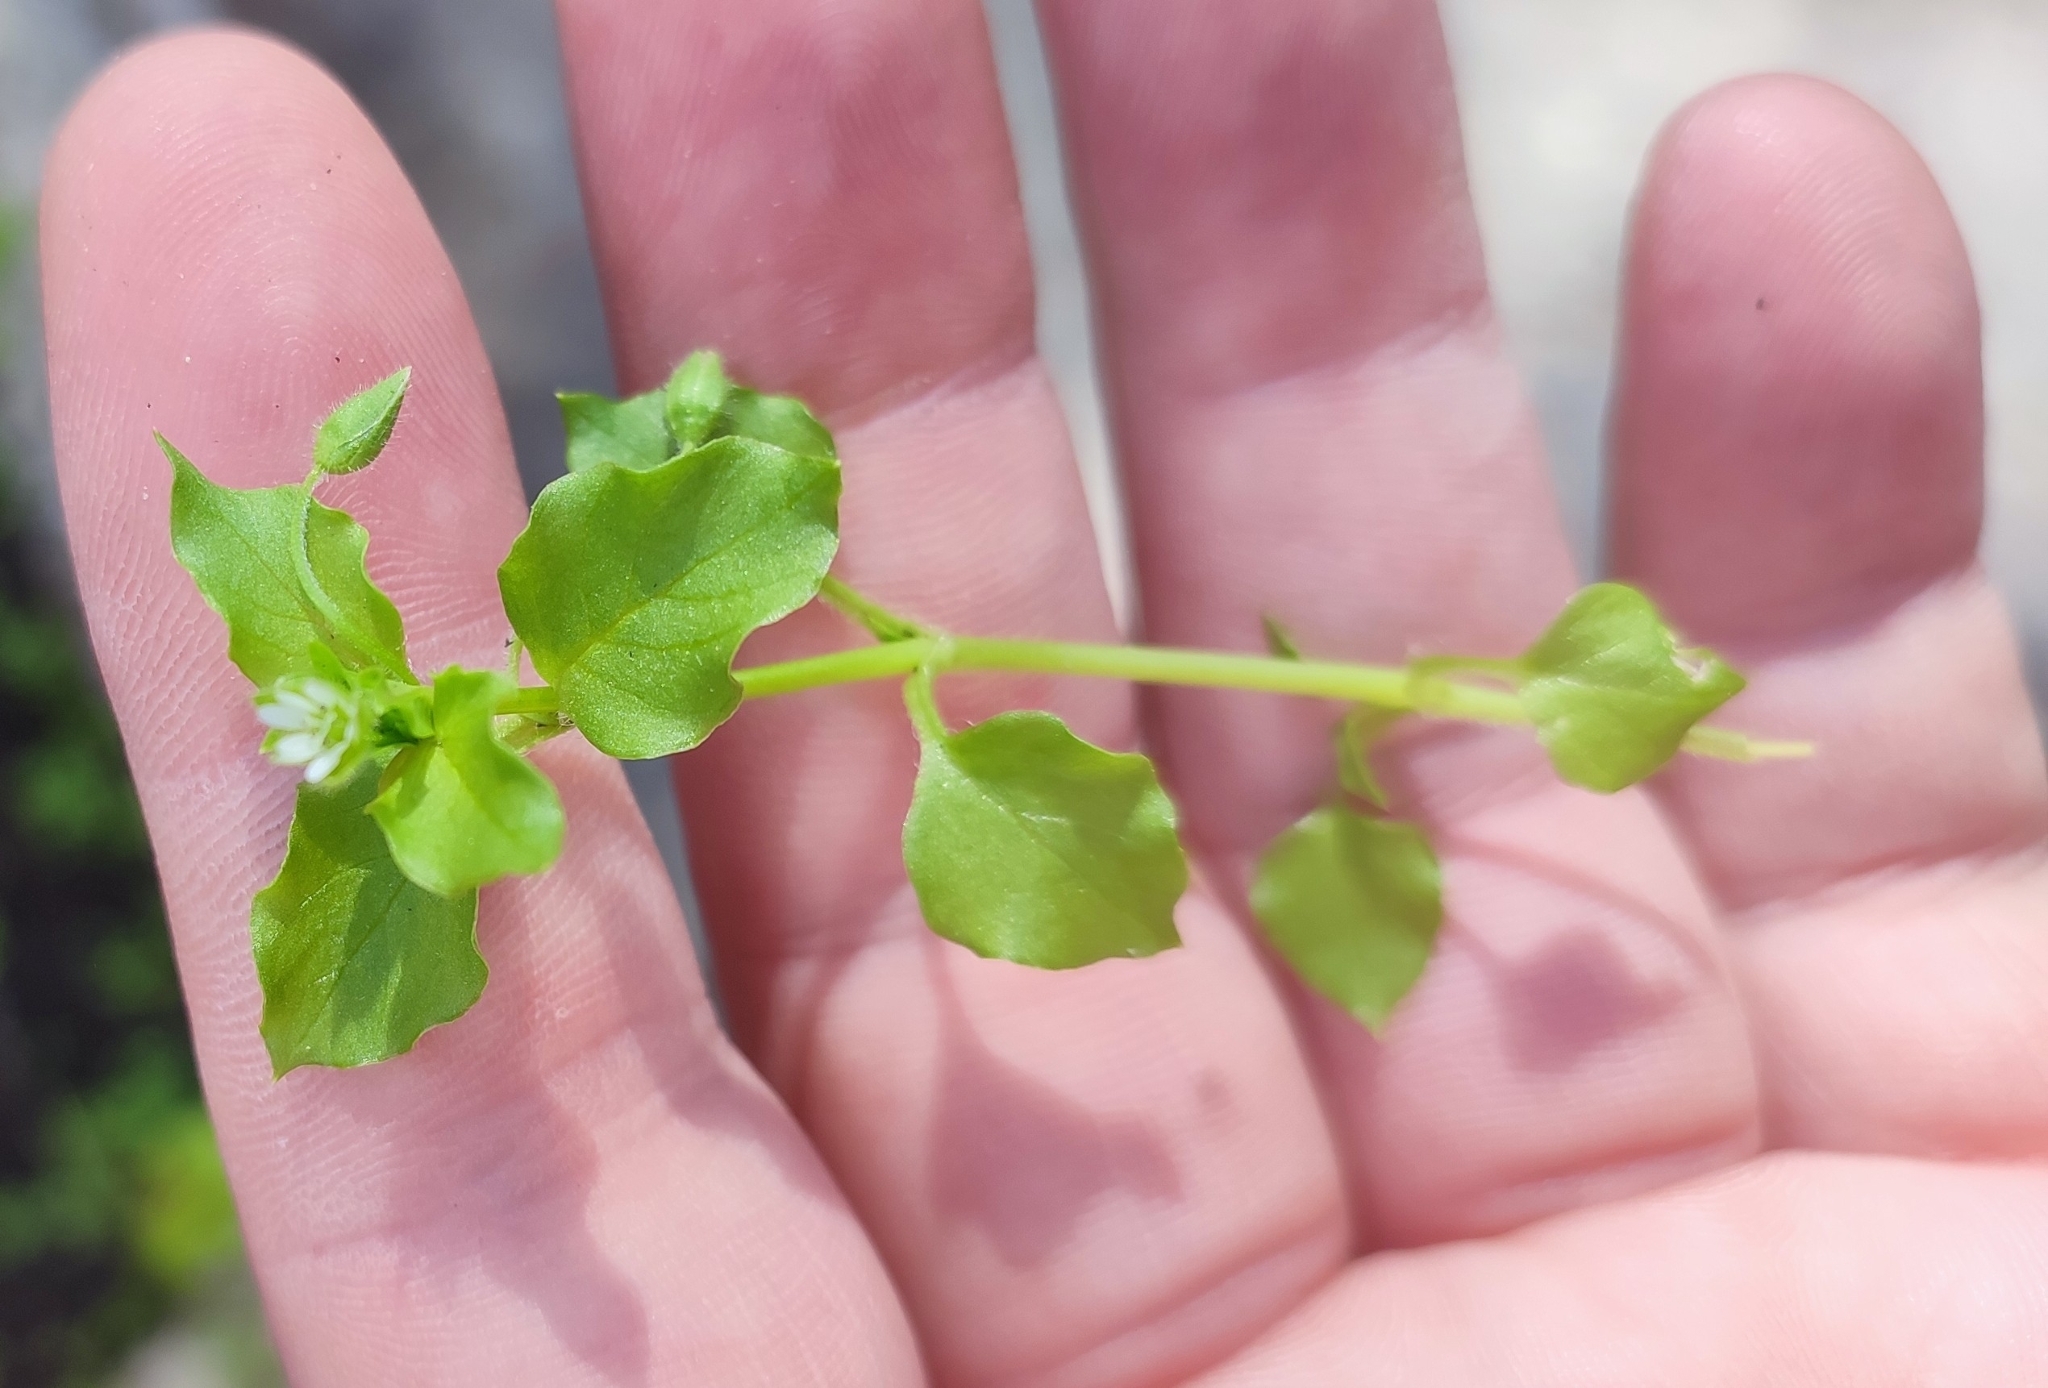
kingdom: Plantae
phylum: Tracheophyta
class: Magnoliopsida
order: Caryophyllales
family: Caryophyllaceae
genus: Stellaria
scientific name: Stellaria media
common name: Common chickweed
